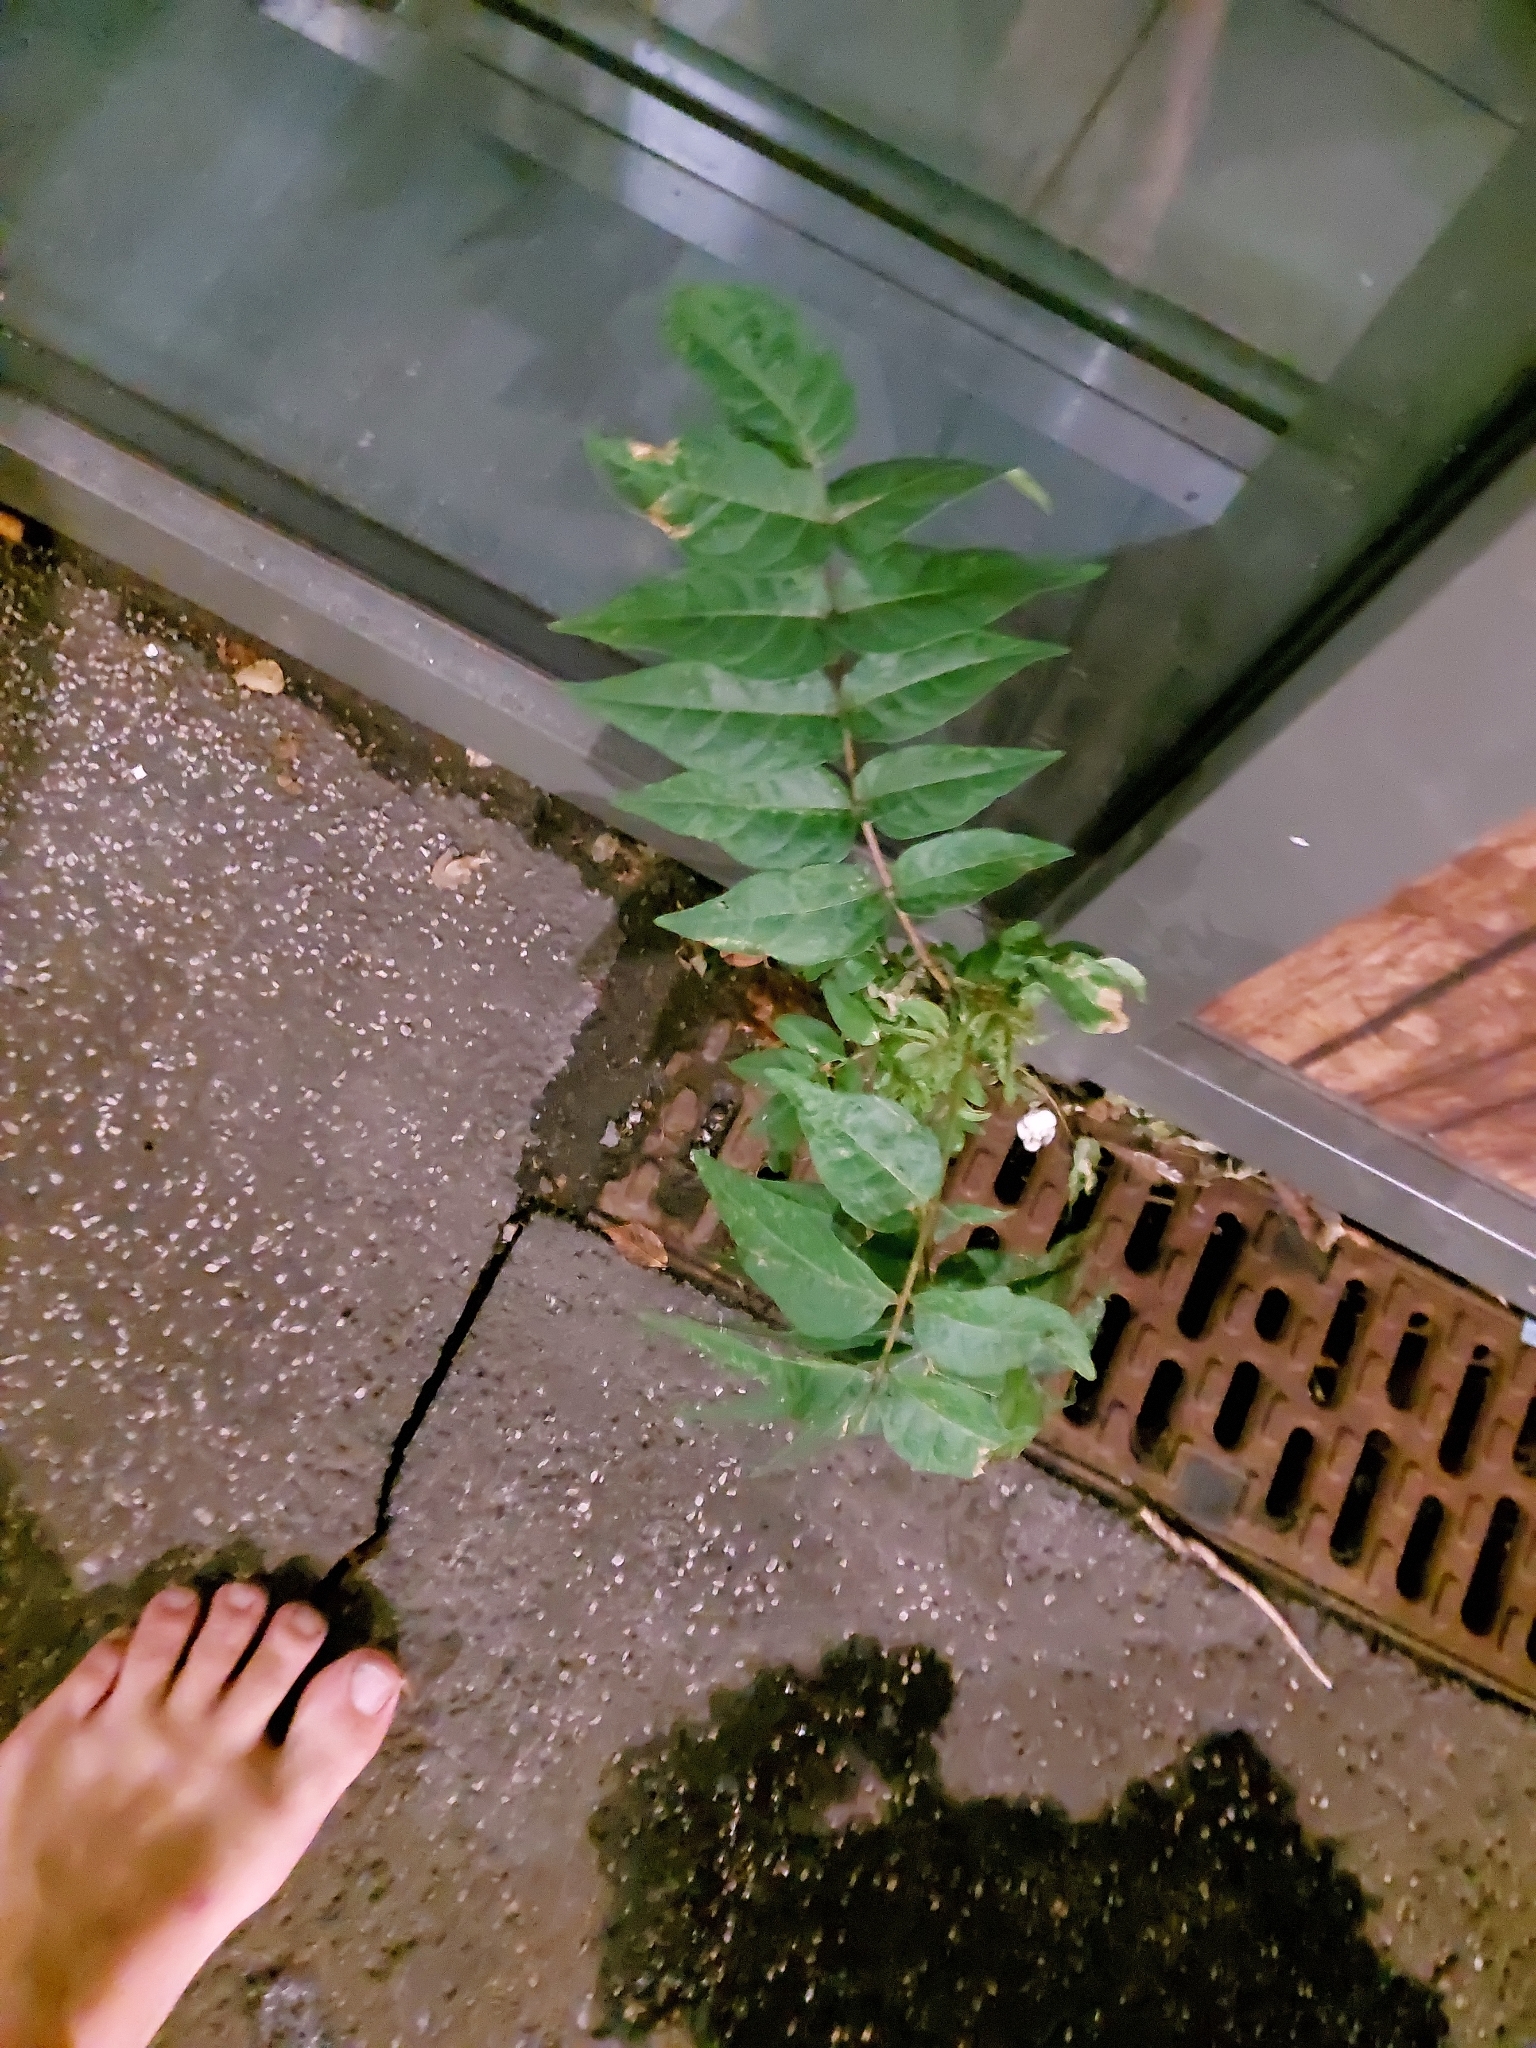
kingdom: Plantae
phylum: Tracheophyta
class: Magnoliopsida
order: Sapindales
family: Simaroubaceae
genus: Ailanthus
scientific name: Ailanthus altissima
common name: Tree-of-heaven
